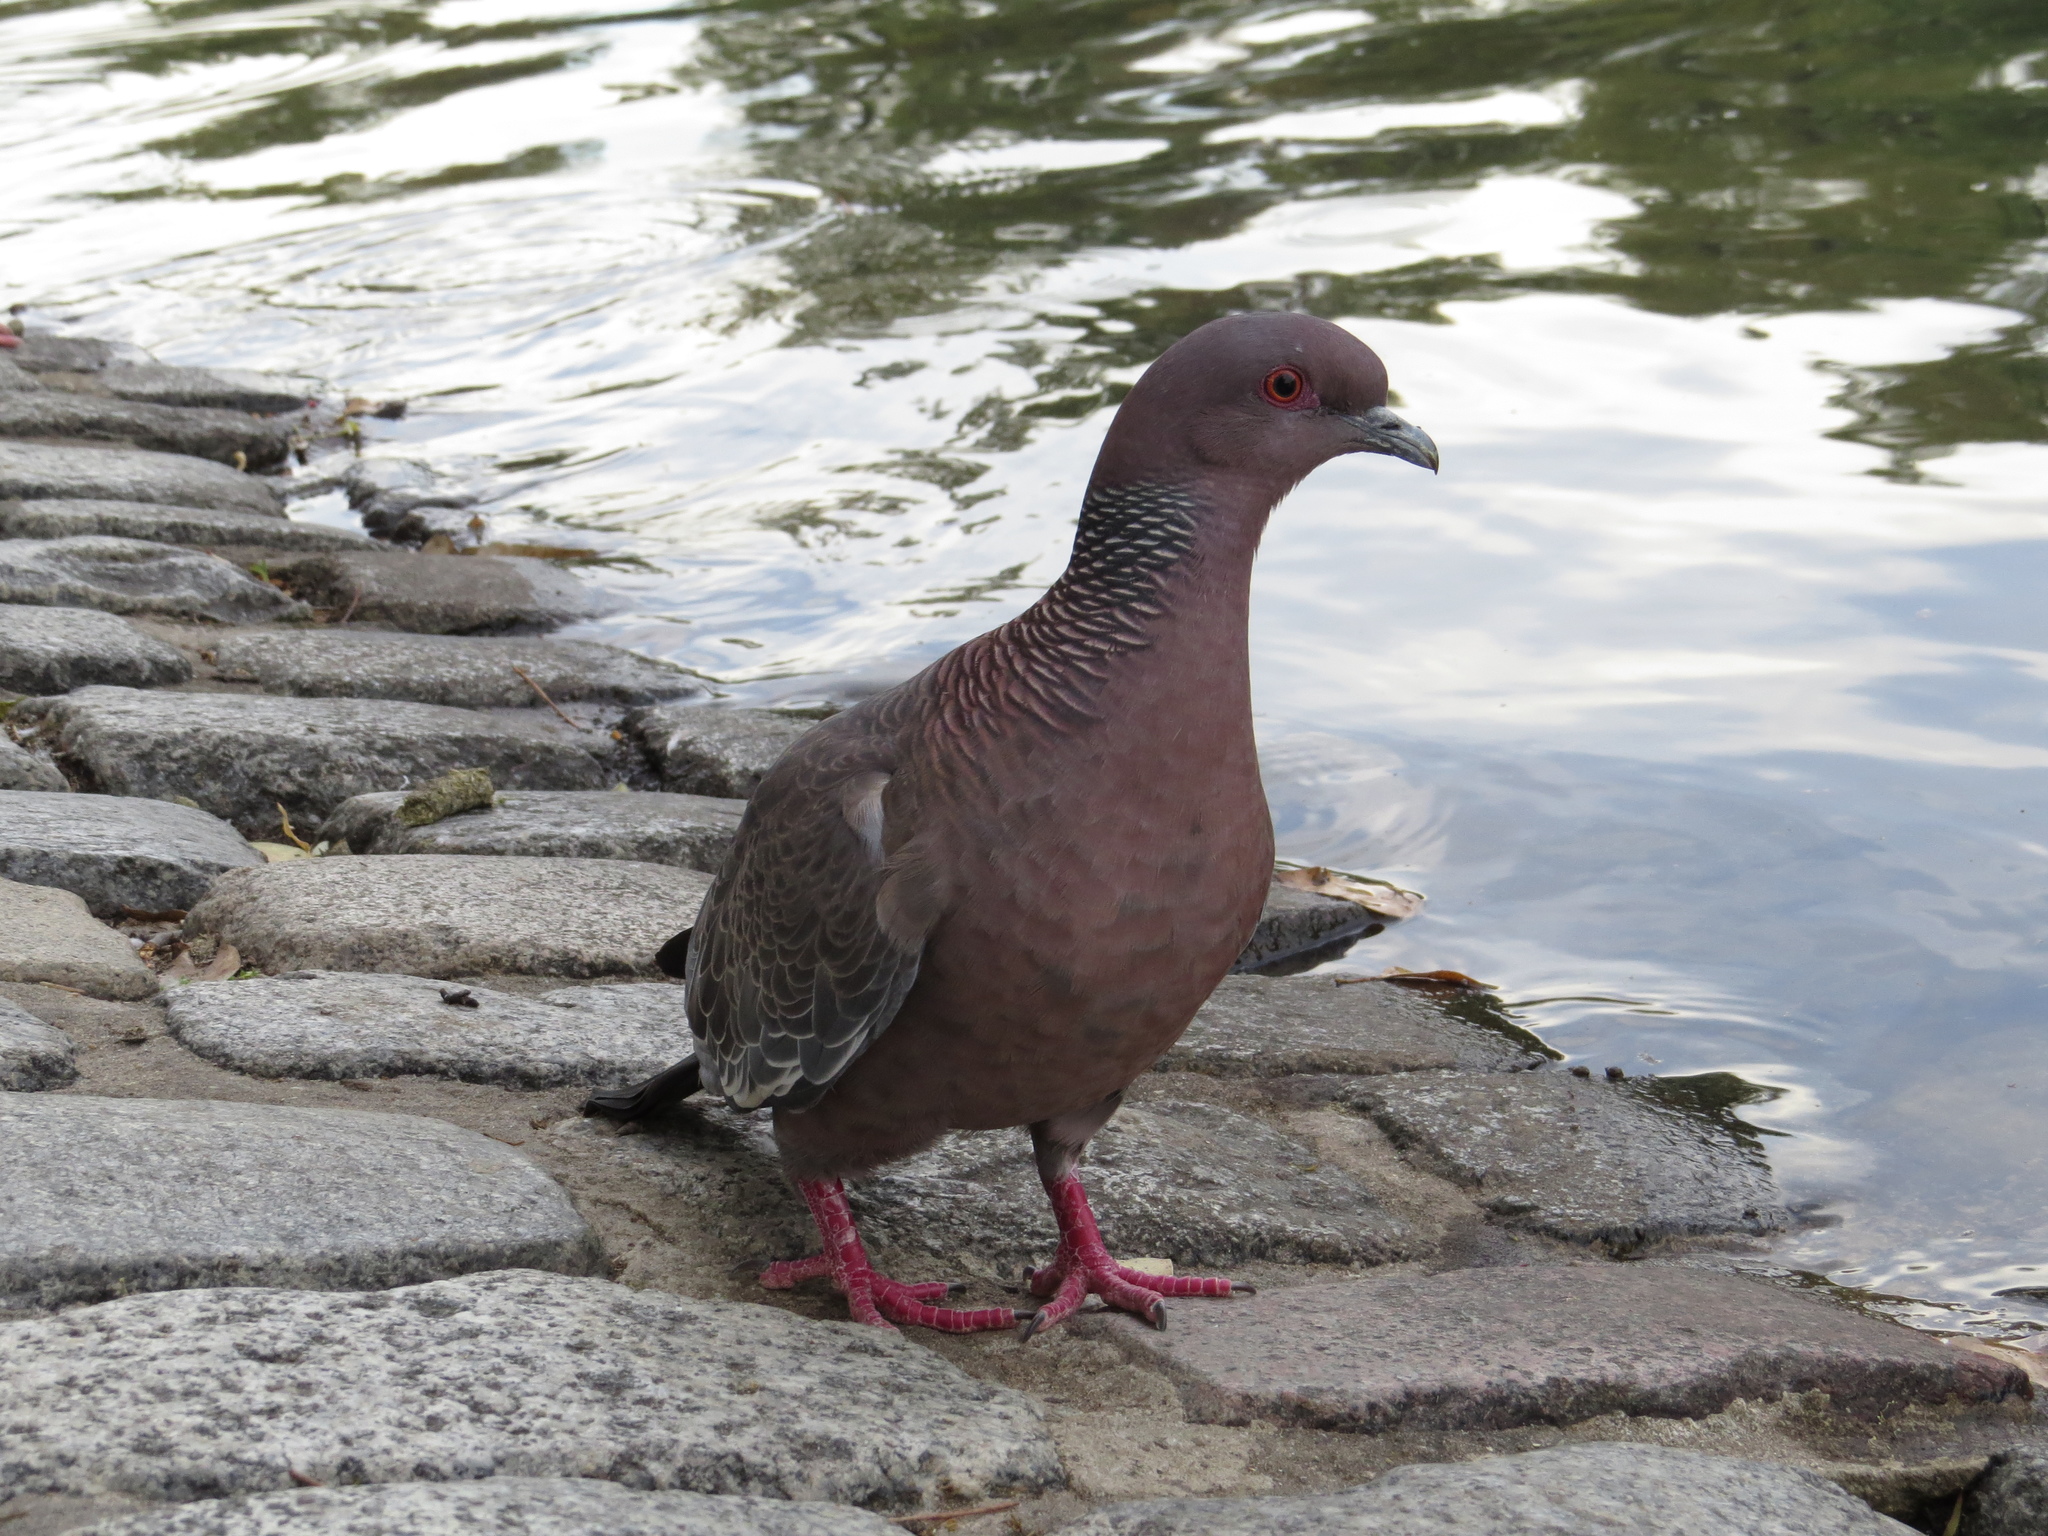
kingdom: Animalia
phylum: Chordata
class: Aves
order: Columbiformes
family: Columbidae
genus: Patagioenas
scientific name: Patagioenas picazuro
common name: Picazuro pigeon
